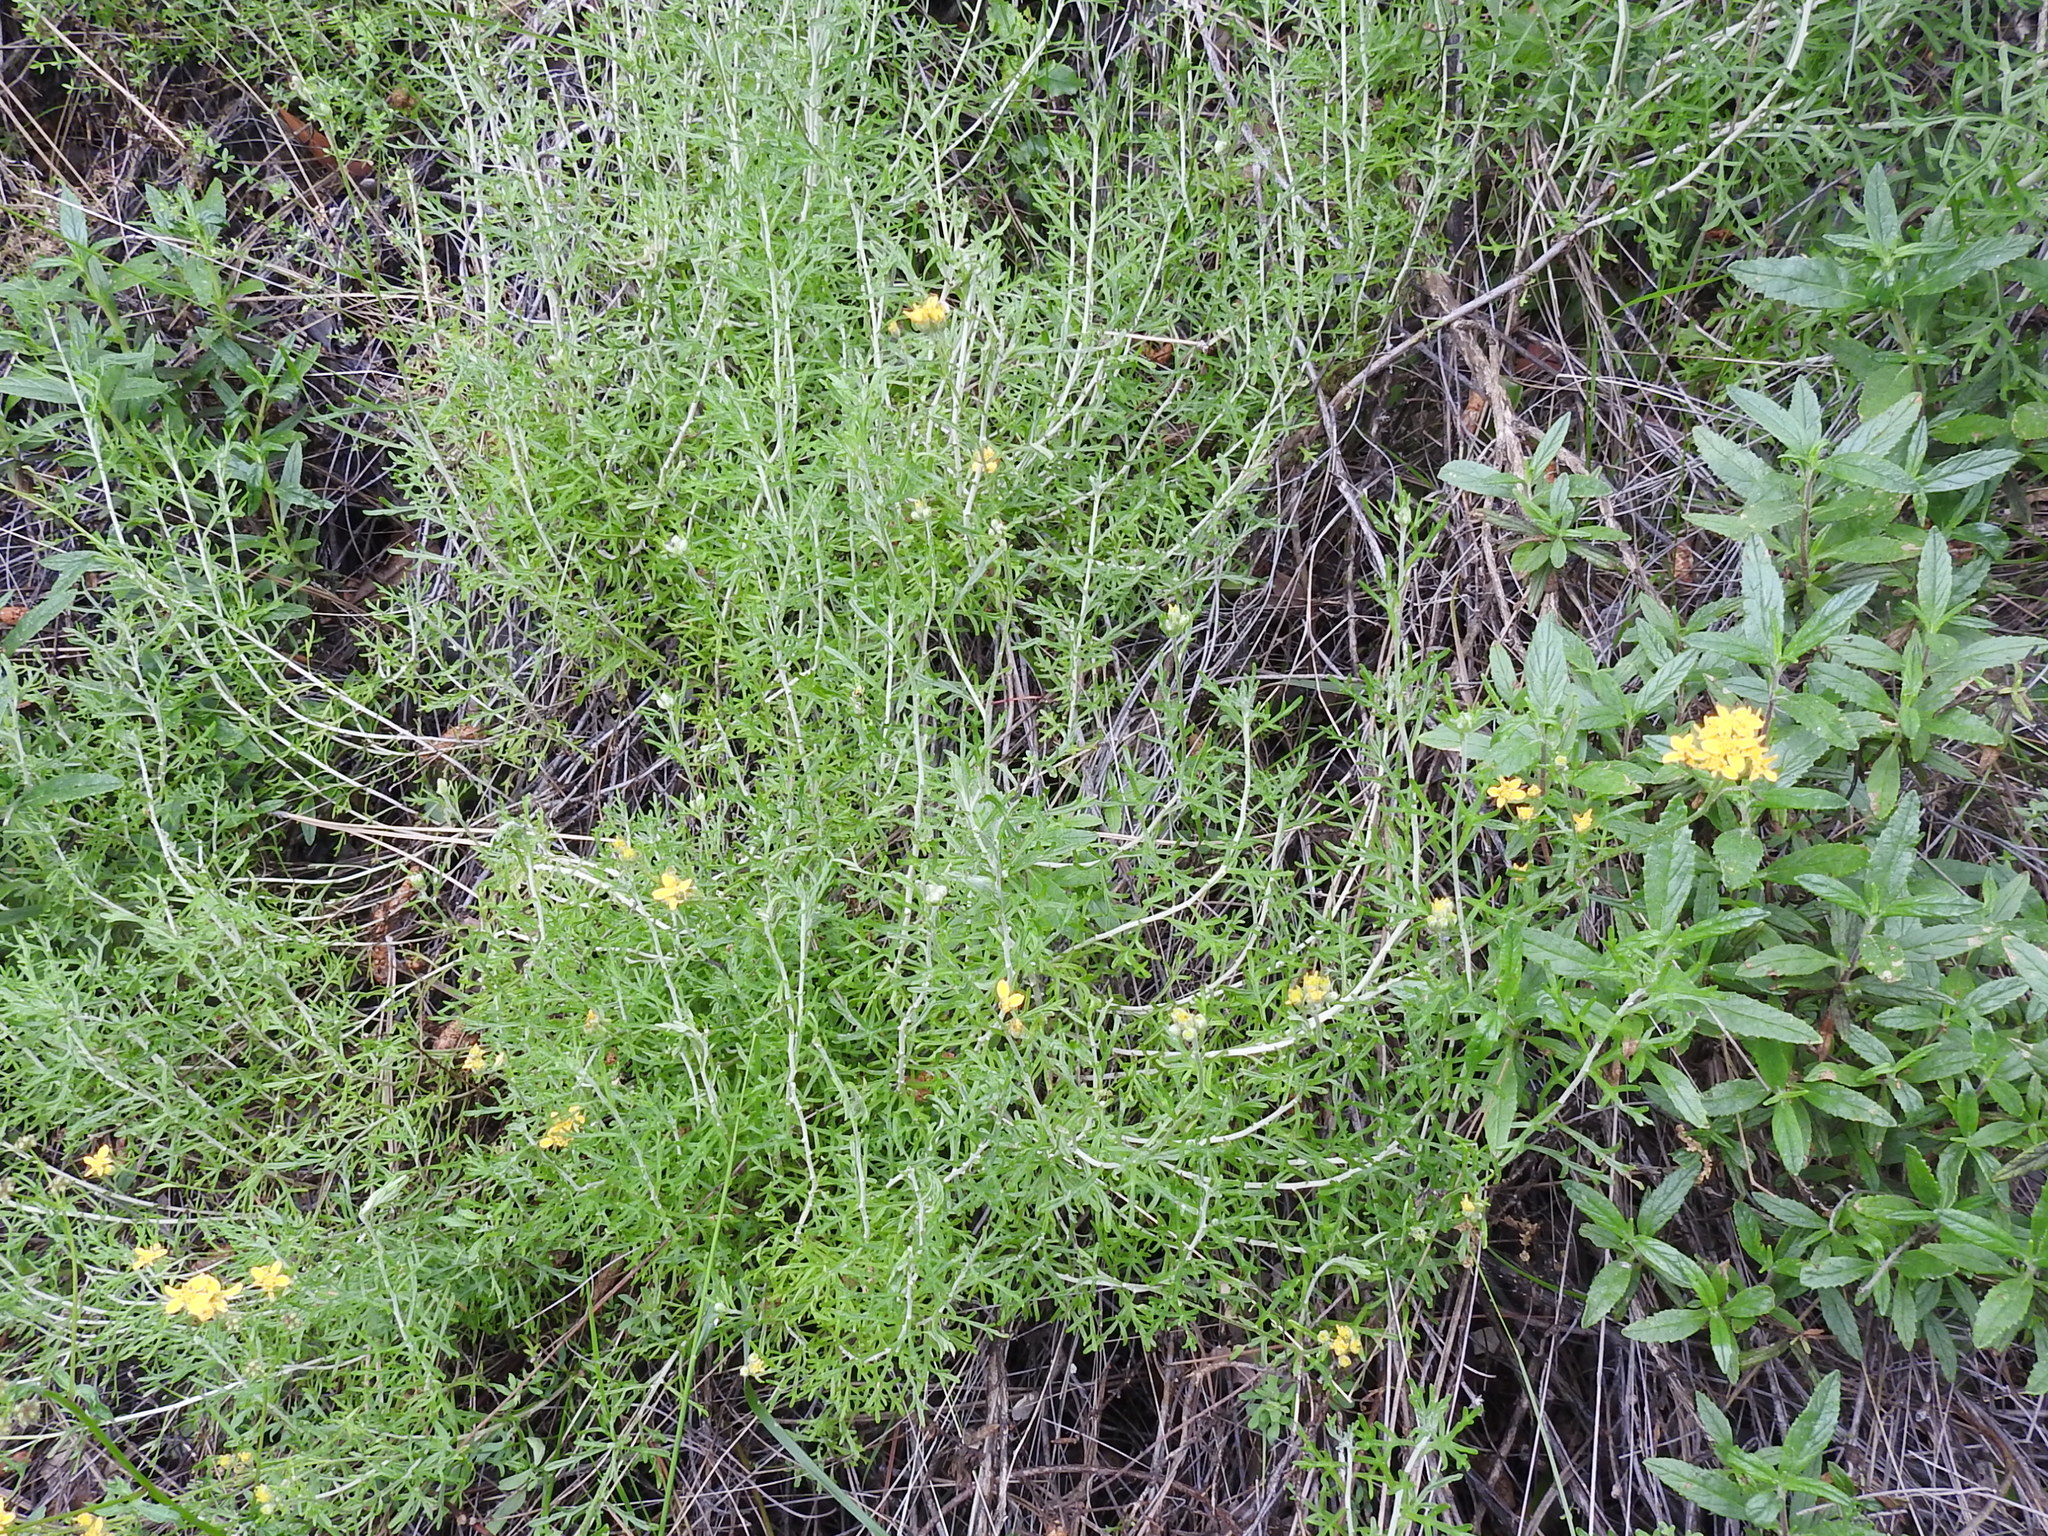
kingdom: Plantae
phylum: Tracheophyta
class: Magnoliopsida
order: Asterales
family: Asteraceae
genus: Eriophyllum
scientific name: Eriophyllum confertiflorum
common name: Golden-yarrow
